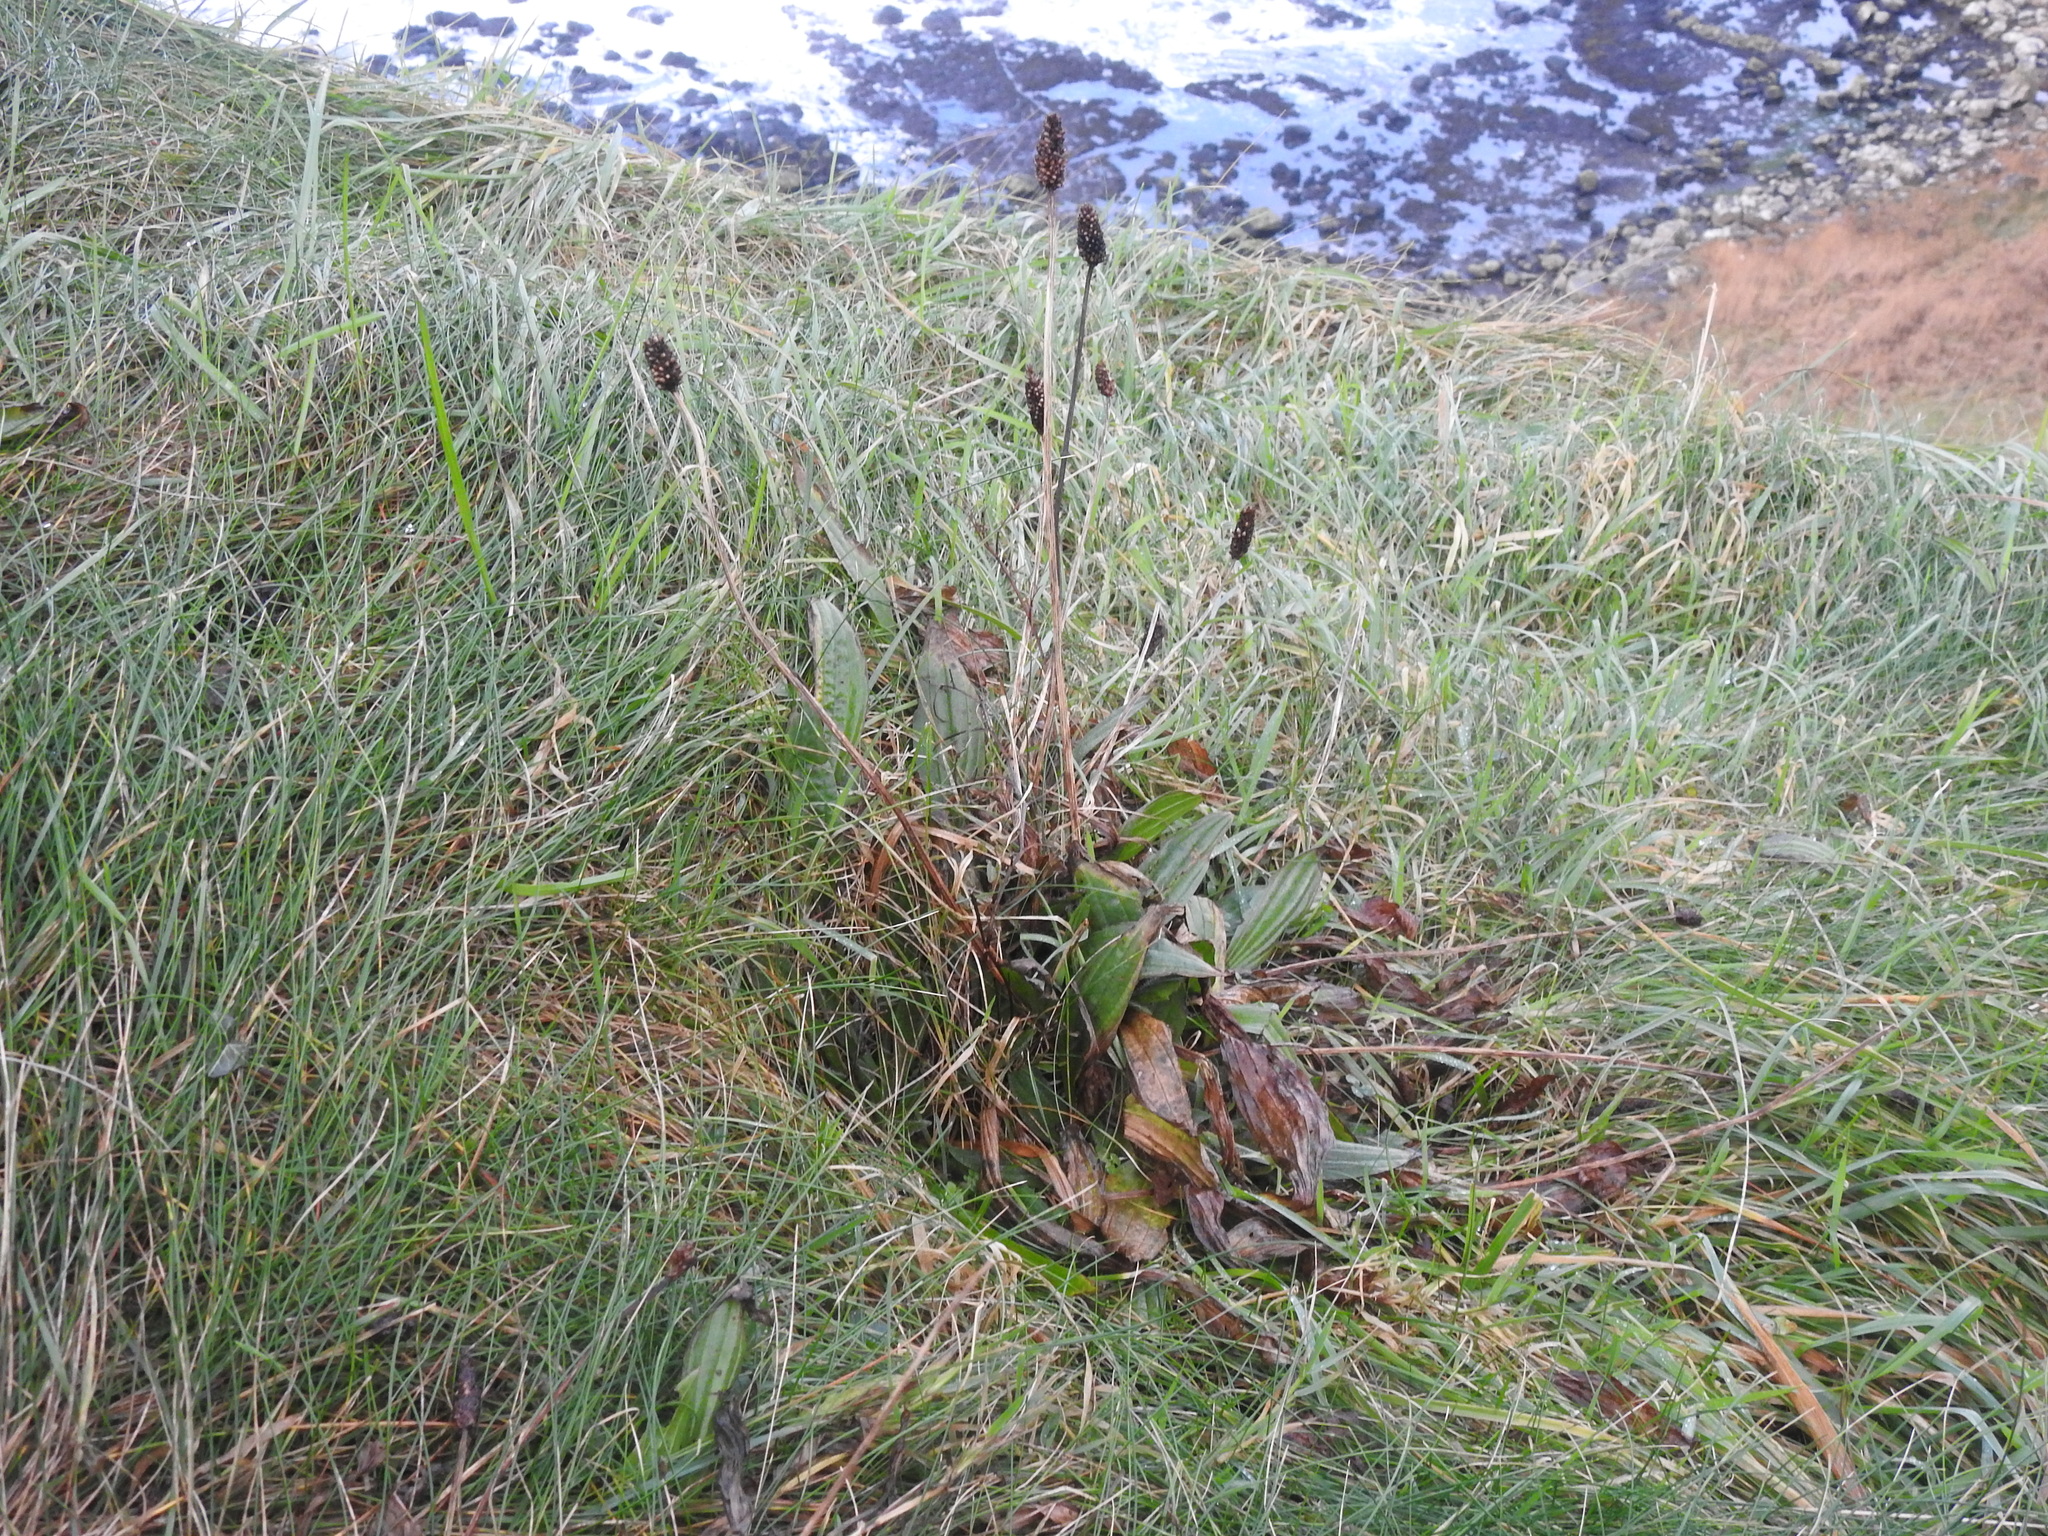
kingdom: Plantae
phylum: Tracheophyta
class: Magnoliopsida
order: Lamiales
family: Plantaginaceae
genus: Plantago
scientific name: Plantago lanceolata
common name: Ribwort plantain
